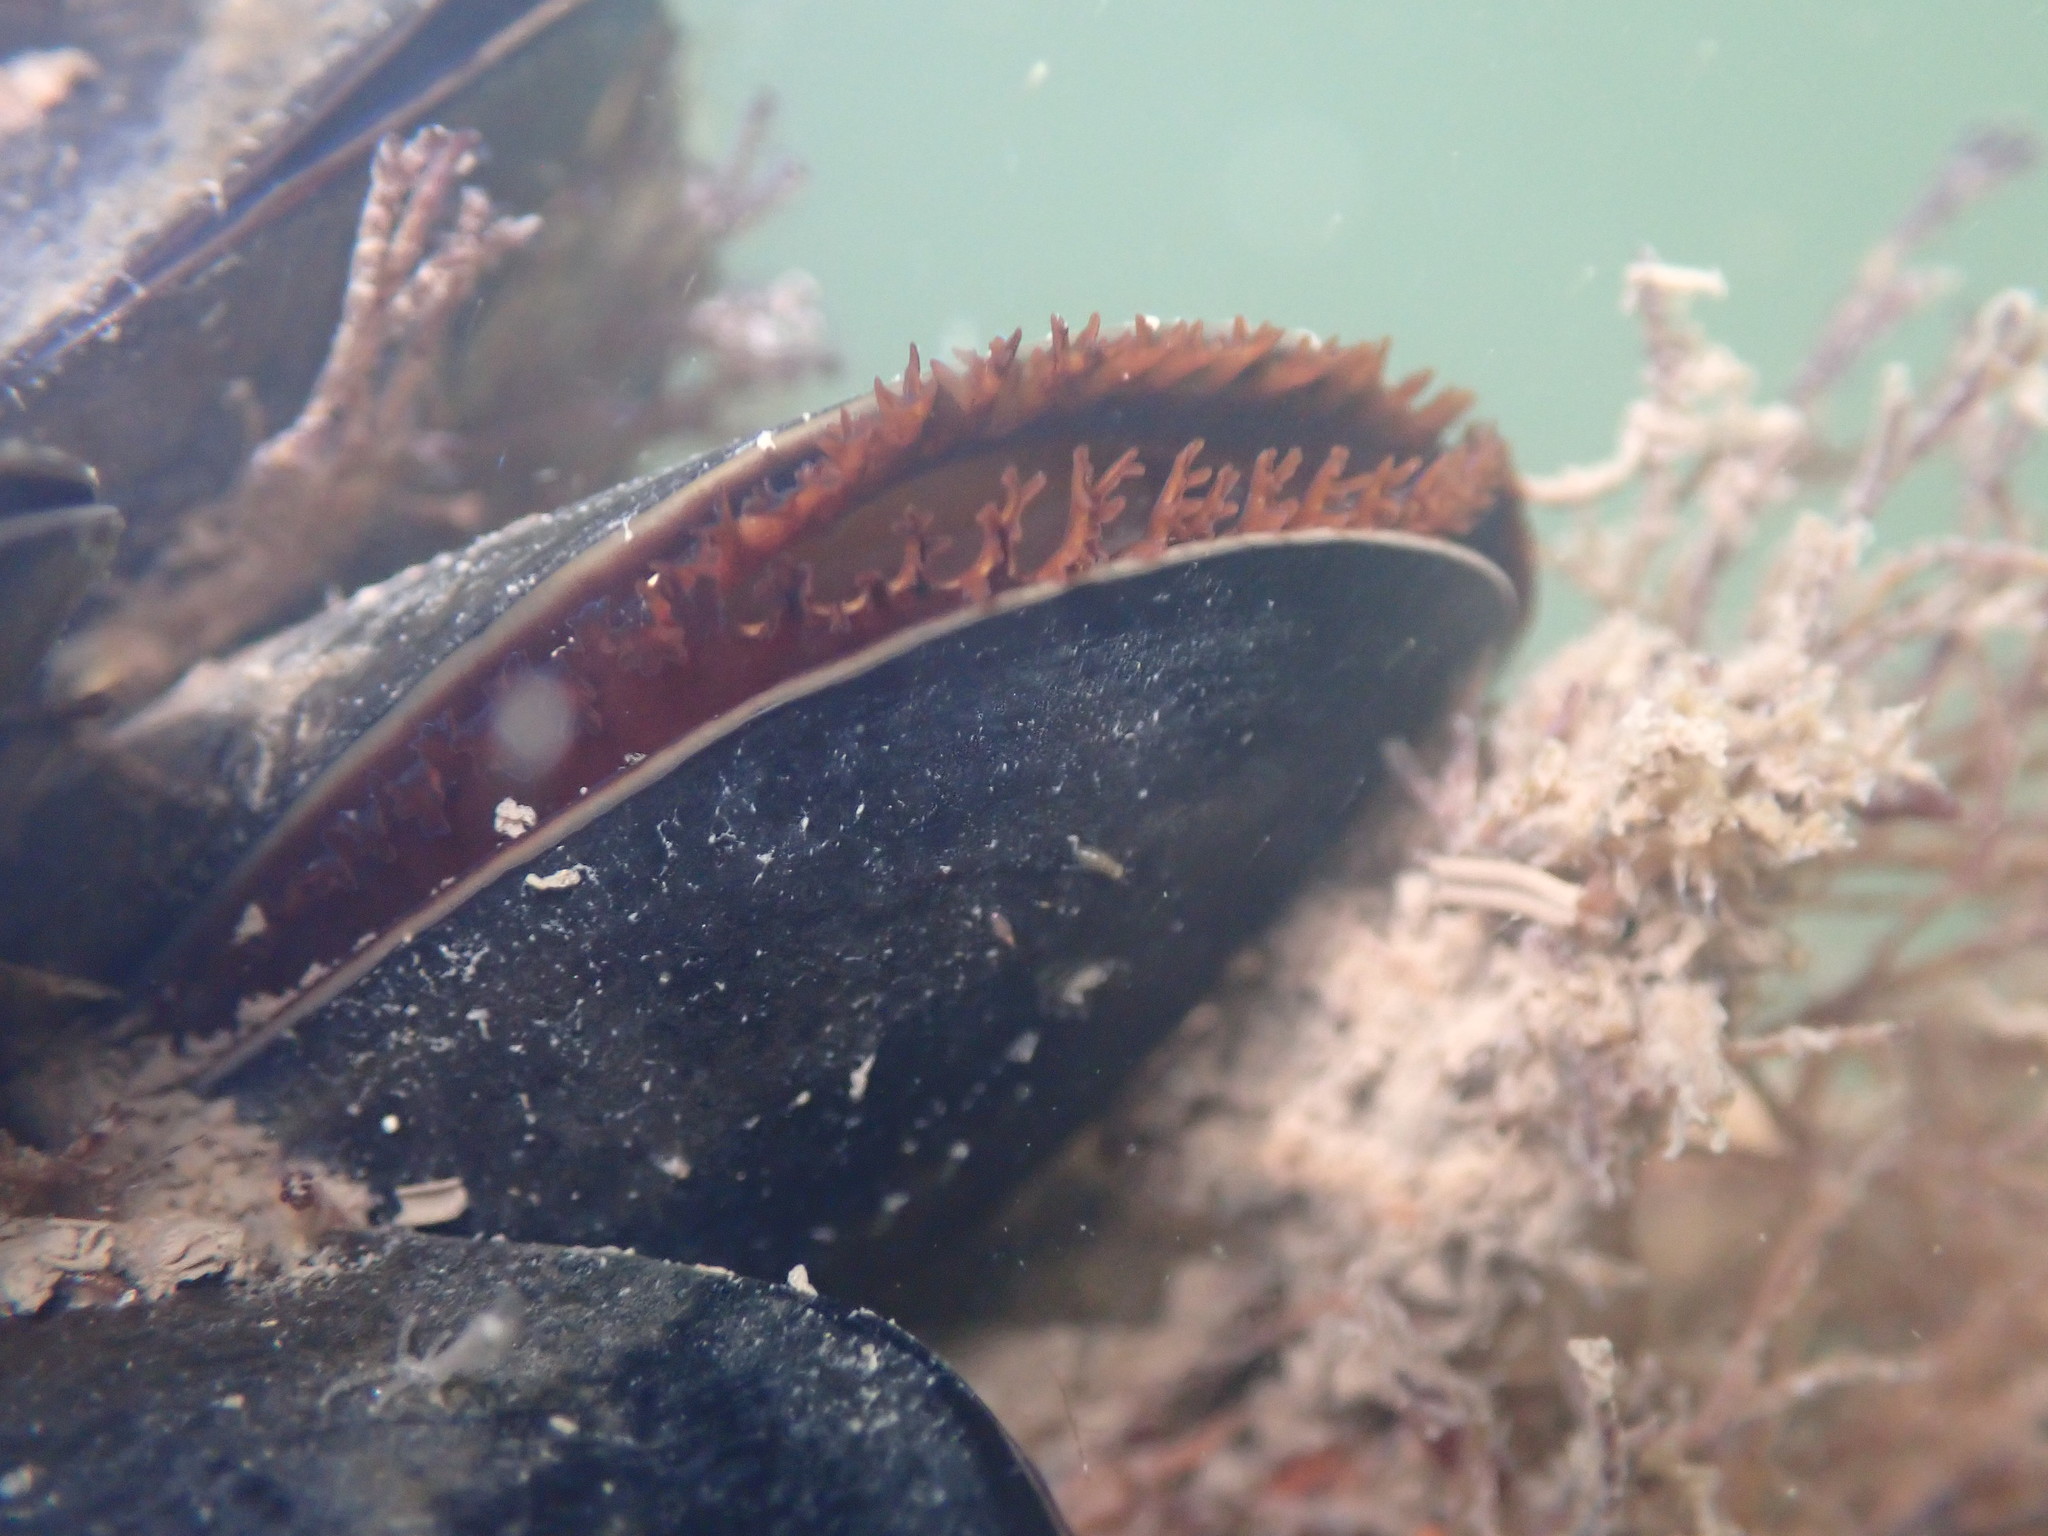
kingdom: Animalia
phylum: Mollusca
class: Bivalvia
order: Mytilida
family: Mytilidae
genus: Mytilus
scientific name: Mytilus
